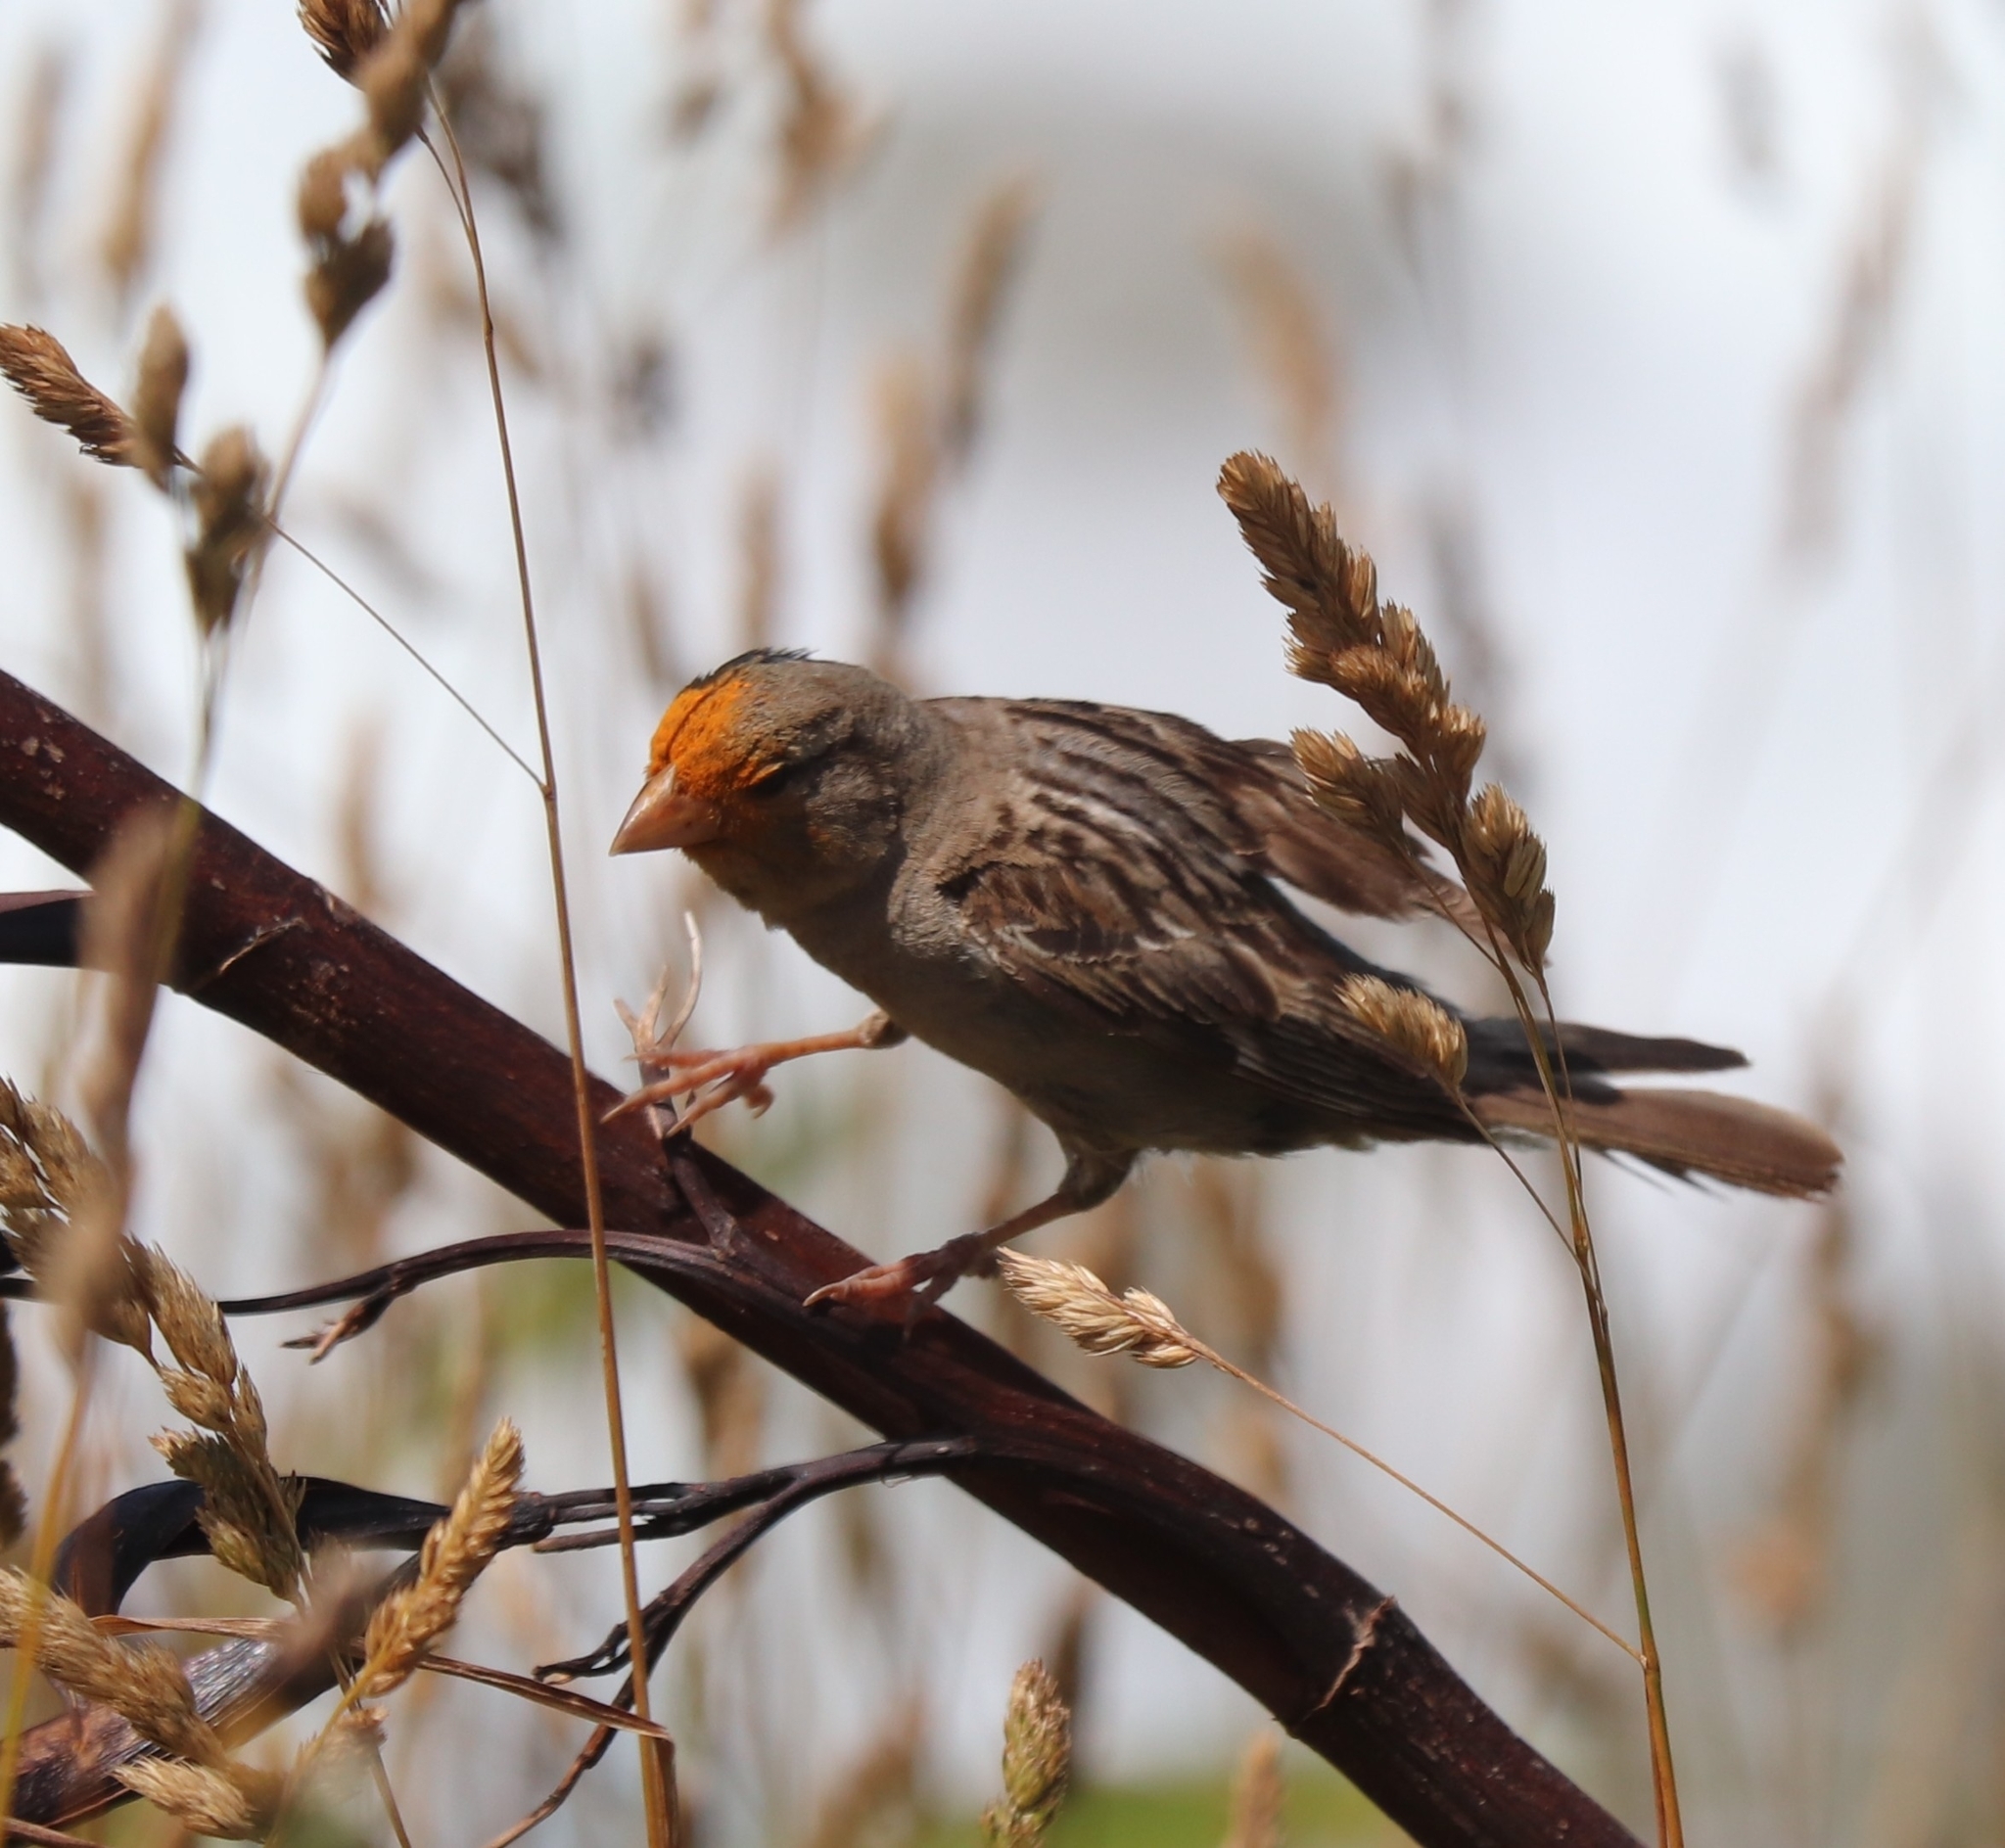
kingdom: Animalia
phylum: Chordata
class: Aves
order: Passeriformes
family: Passeridae
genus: Passer
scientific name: Passer domesticus
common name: House sparrow
